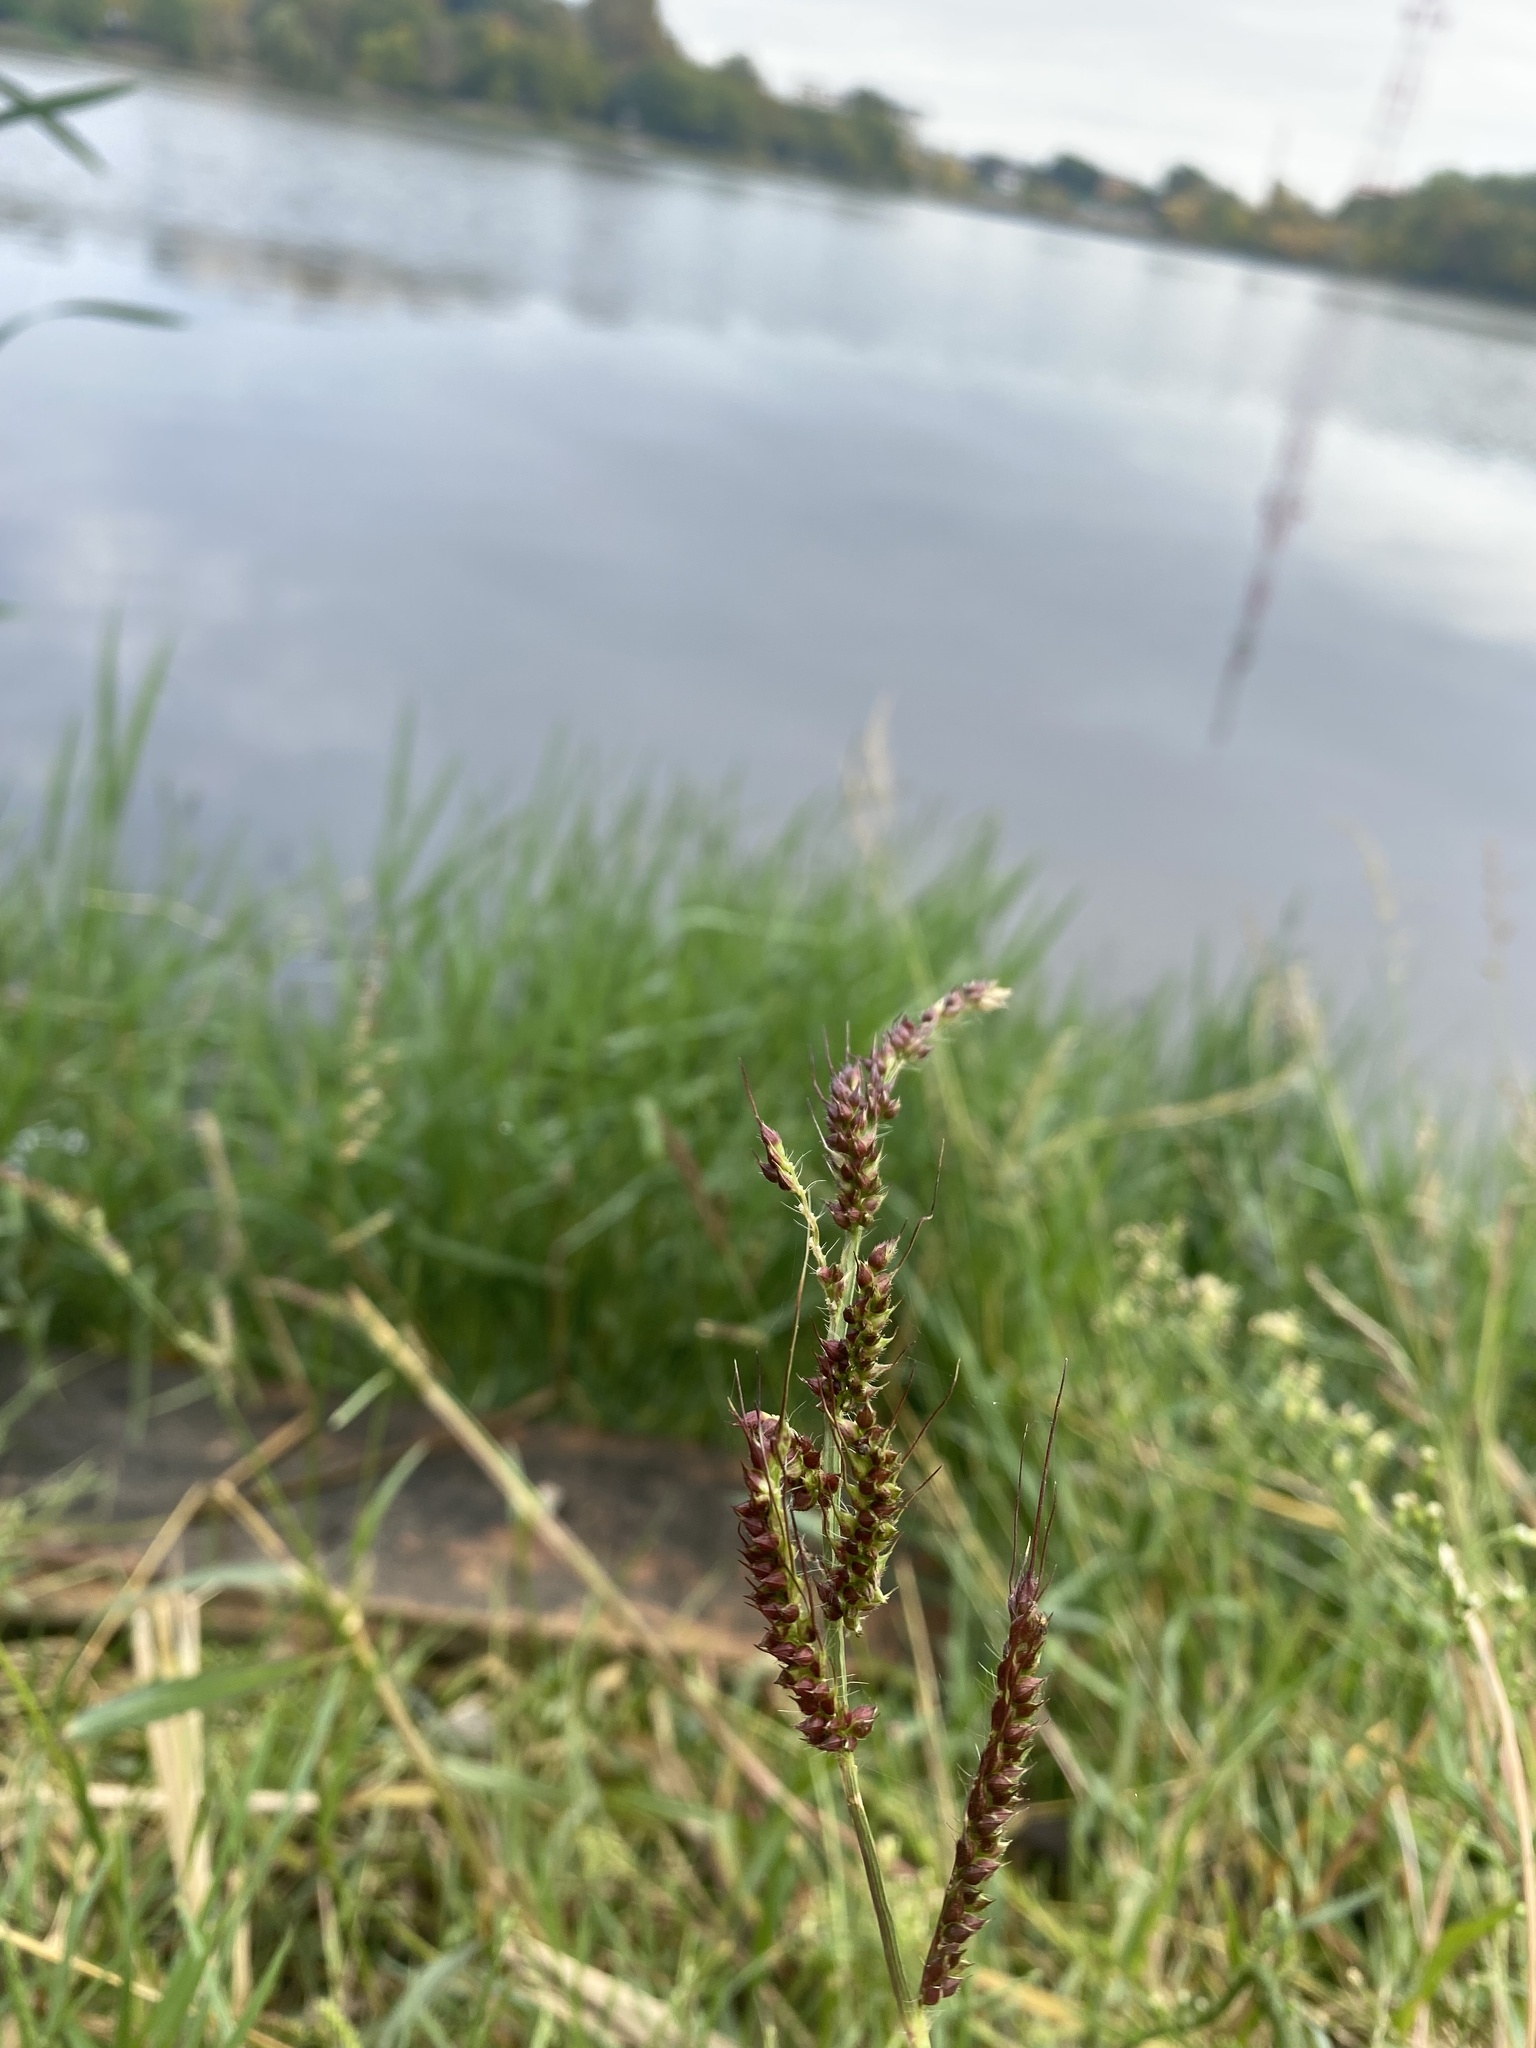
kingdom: Plantae
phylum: Tracheophyta
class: Liliopsida
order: Poales
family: Poaceae
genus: Echinochloa
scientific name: Echinochloa crus-galli
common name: Cockspur
